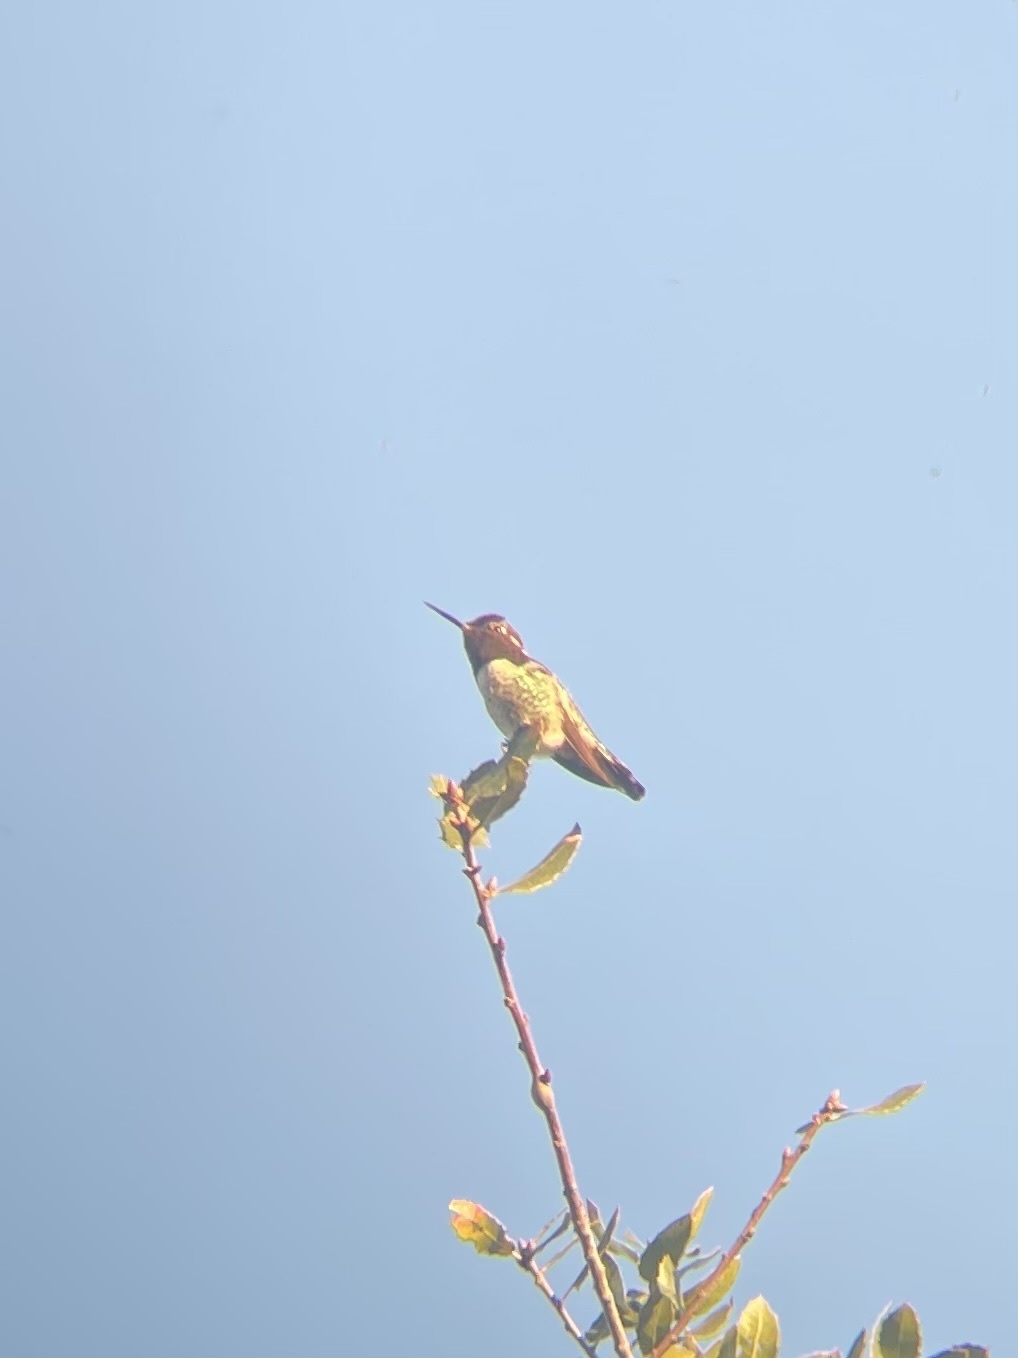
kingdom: Animalia
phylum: Chordata
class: Aves
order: Apodiformes
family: Trochilidae
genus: Calypte
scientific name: Calypte anna
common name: Anna's hummingbird
